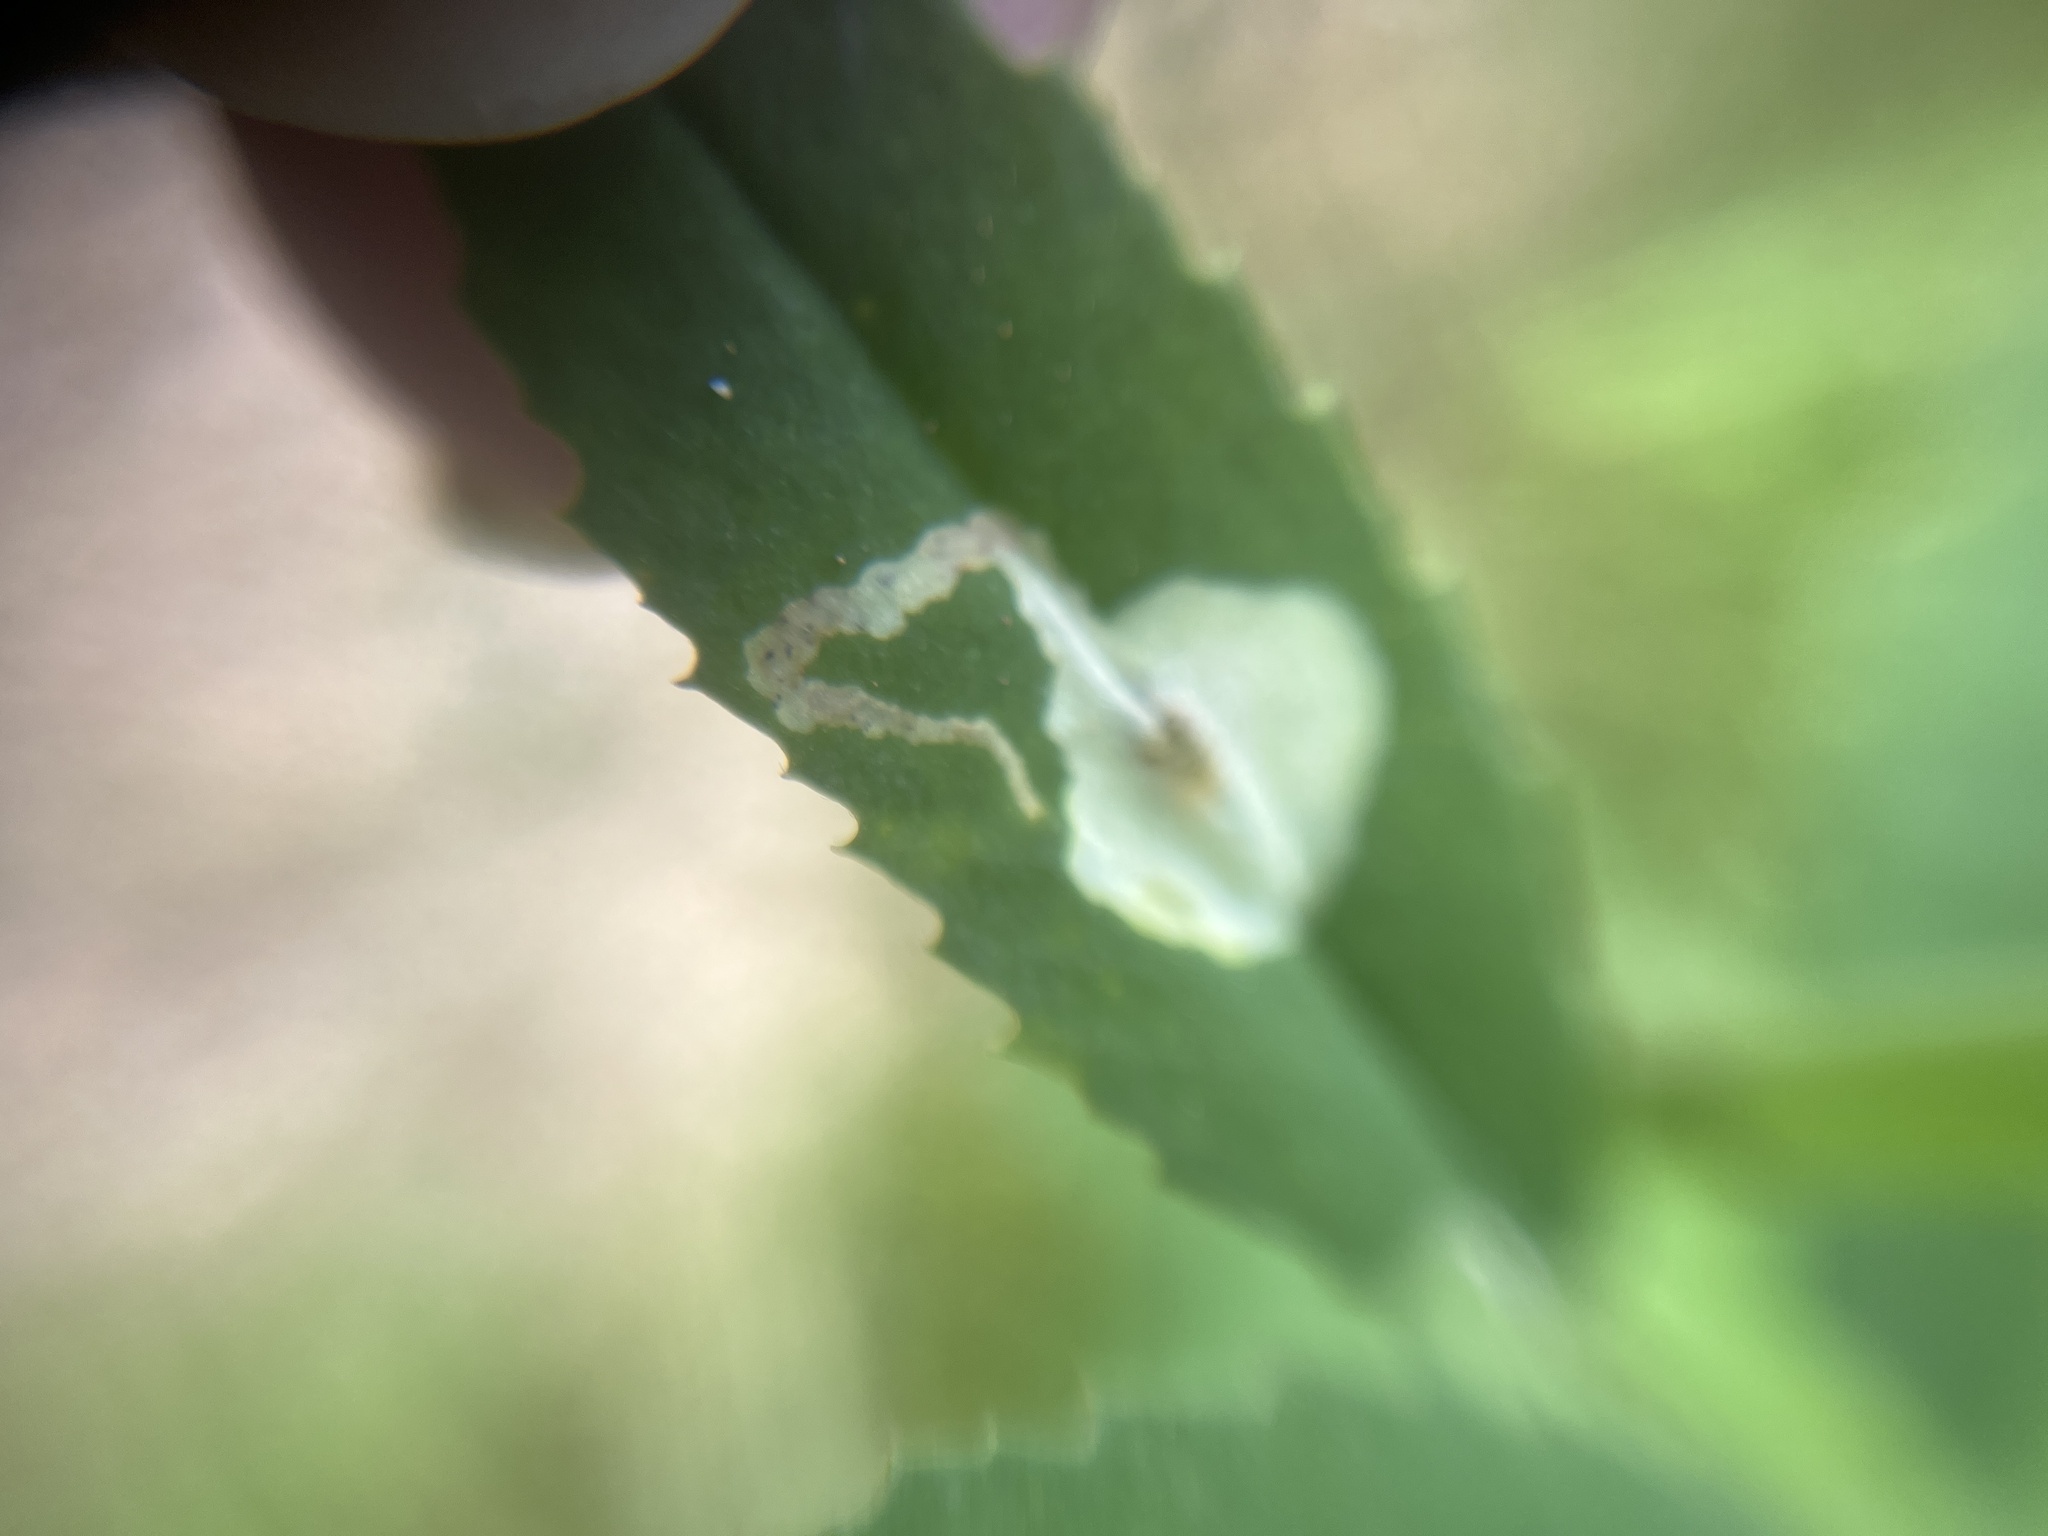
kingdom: Animalia
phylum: Arthropoda
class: Insecta
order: Diptera
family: Agromyzidae
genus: Agromyza
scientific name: Agromyza nana
